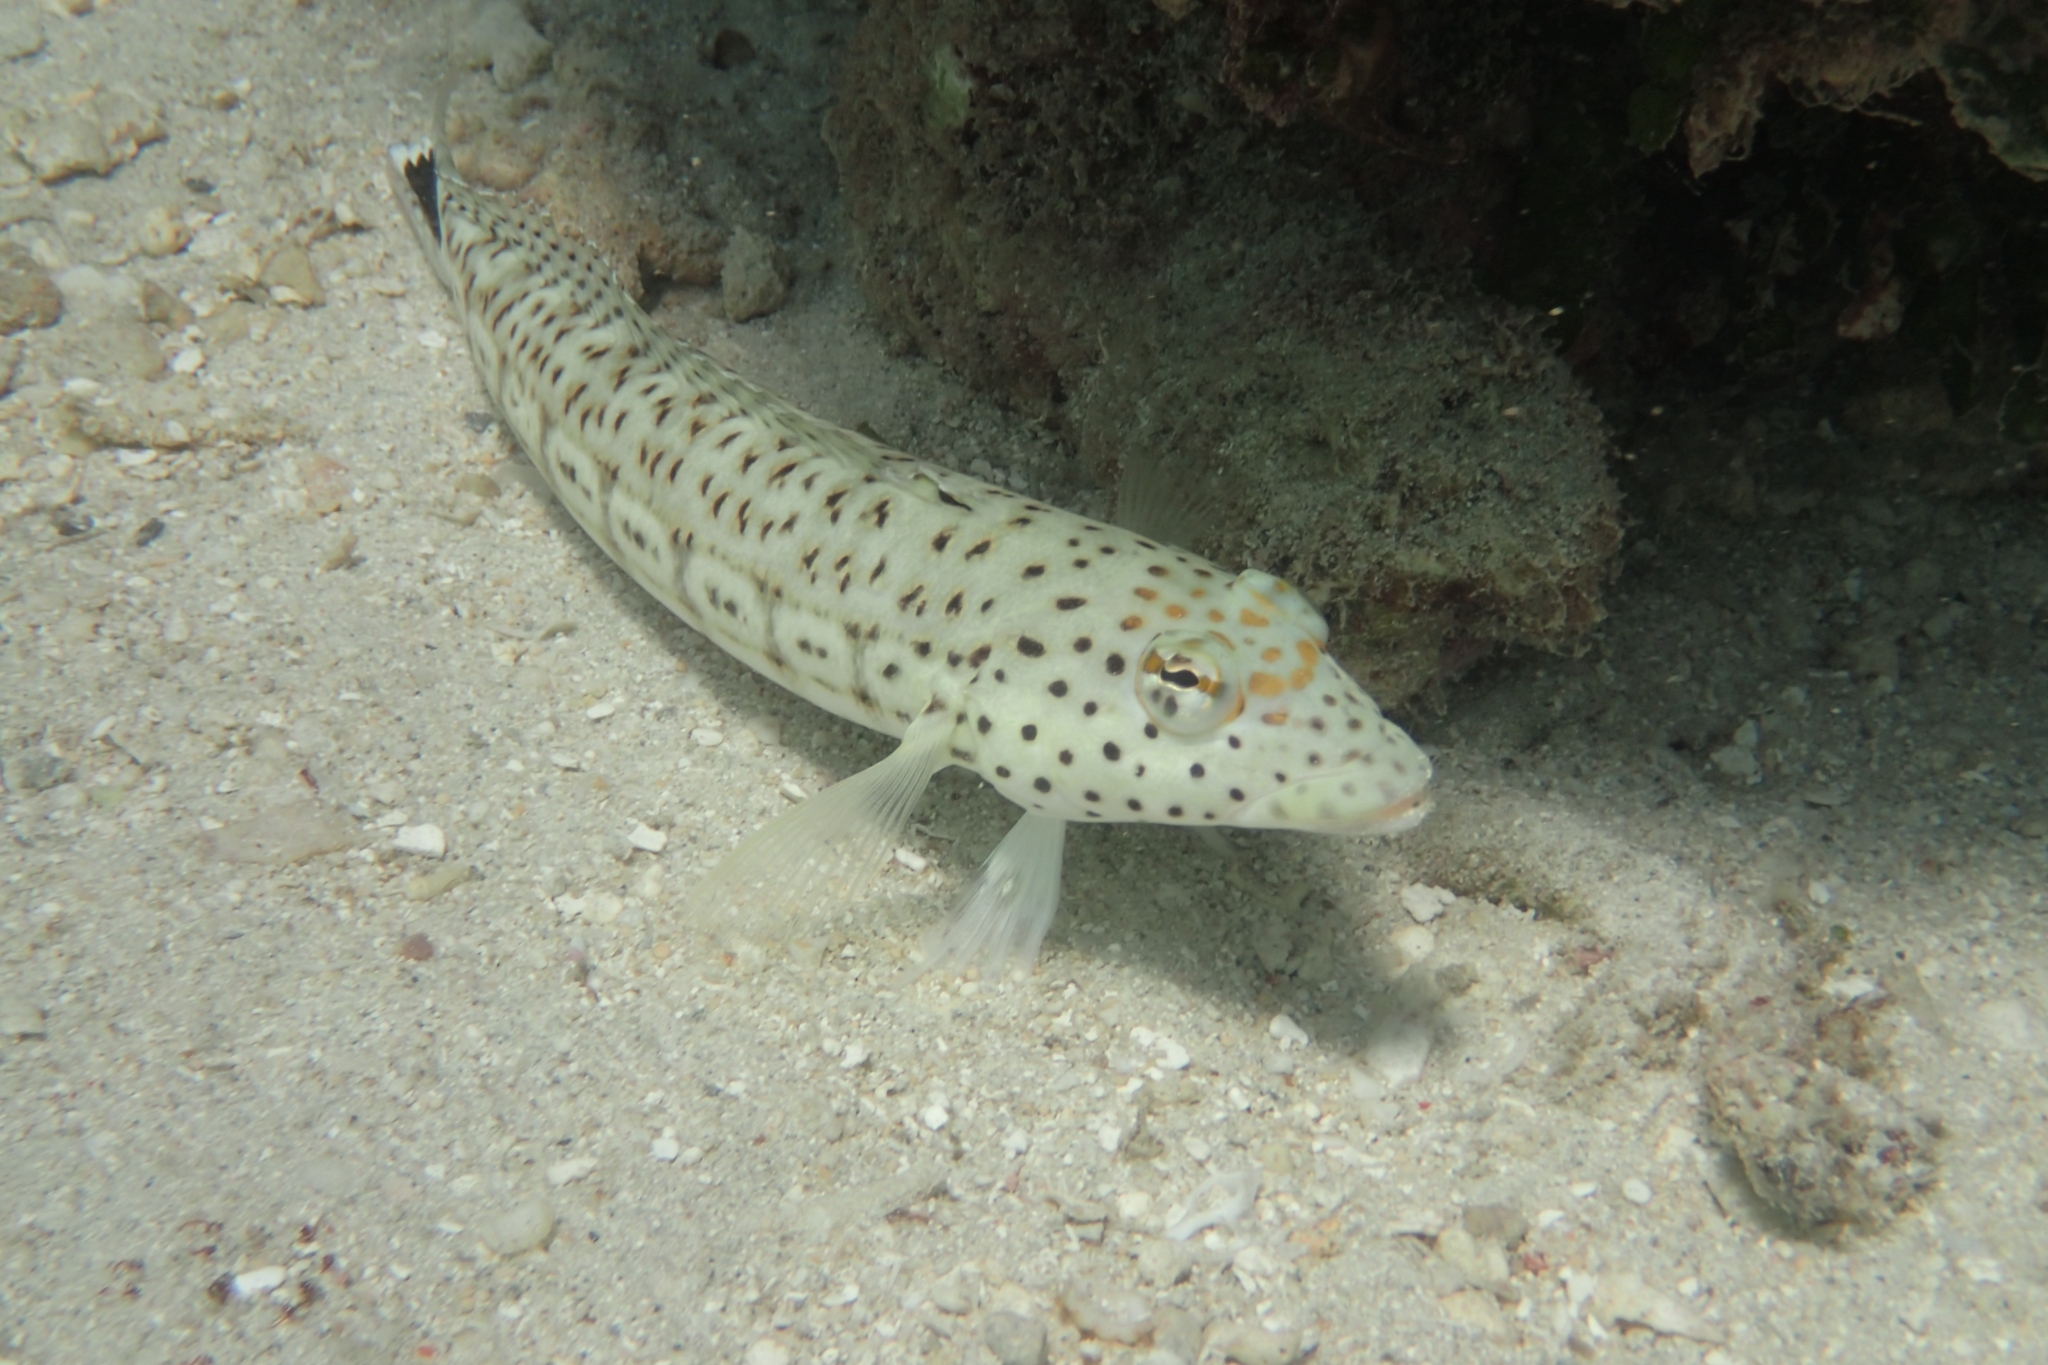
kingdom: Animalia
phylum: Chordata
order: Perciformes
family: Pinguipedidae
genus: Parapercis
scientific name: Parapercis queenslandica
